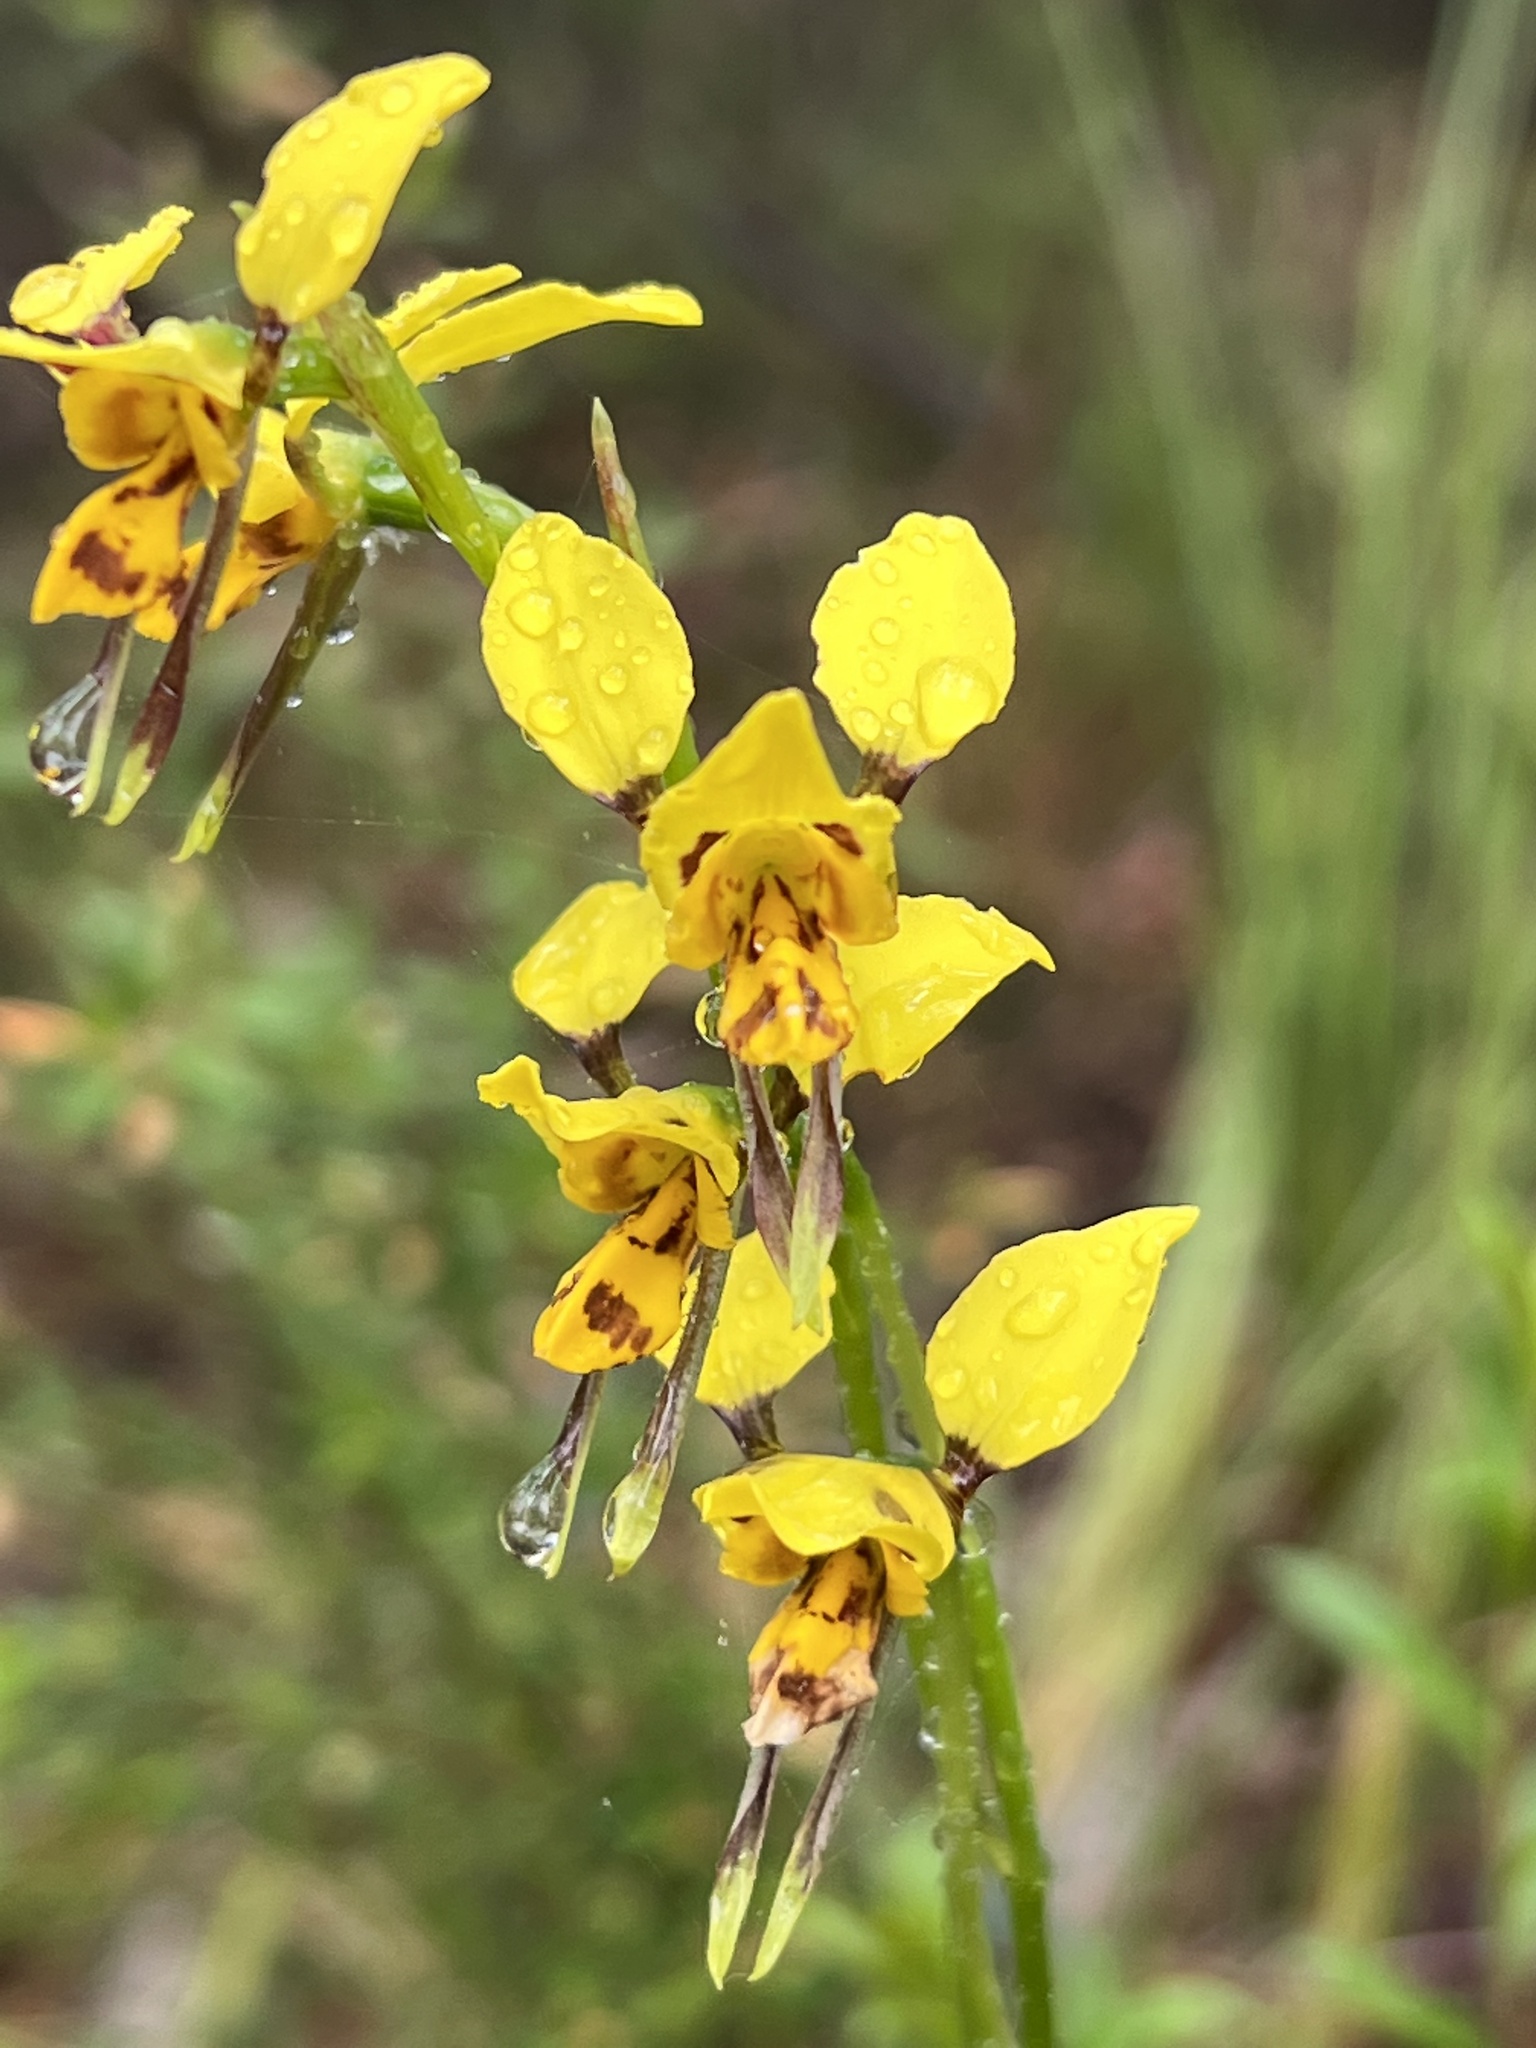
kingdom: Plantae
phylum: Tracheophyta
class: Liliopsida
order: Asparagales
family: Orchidaceae
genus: Diuris
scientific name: Diuris sulphurea
